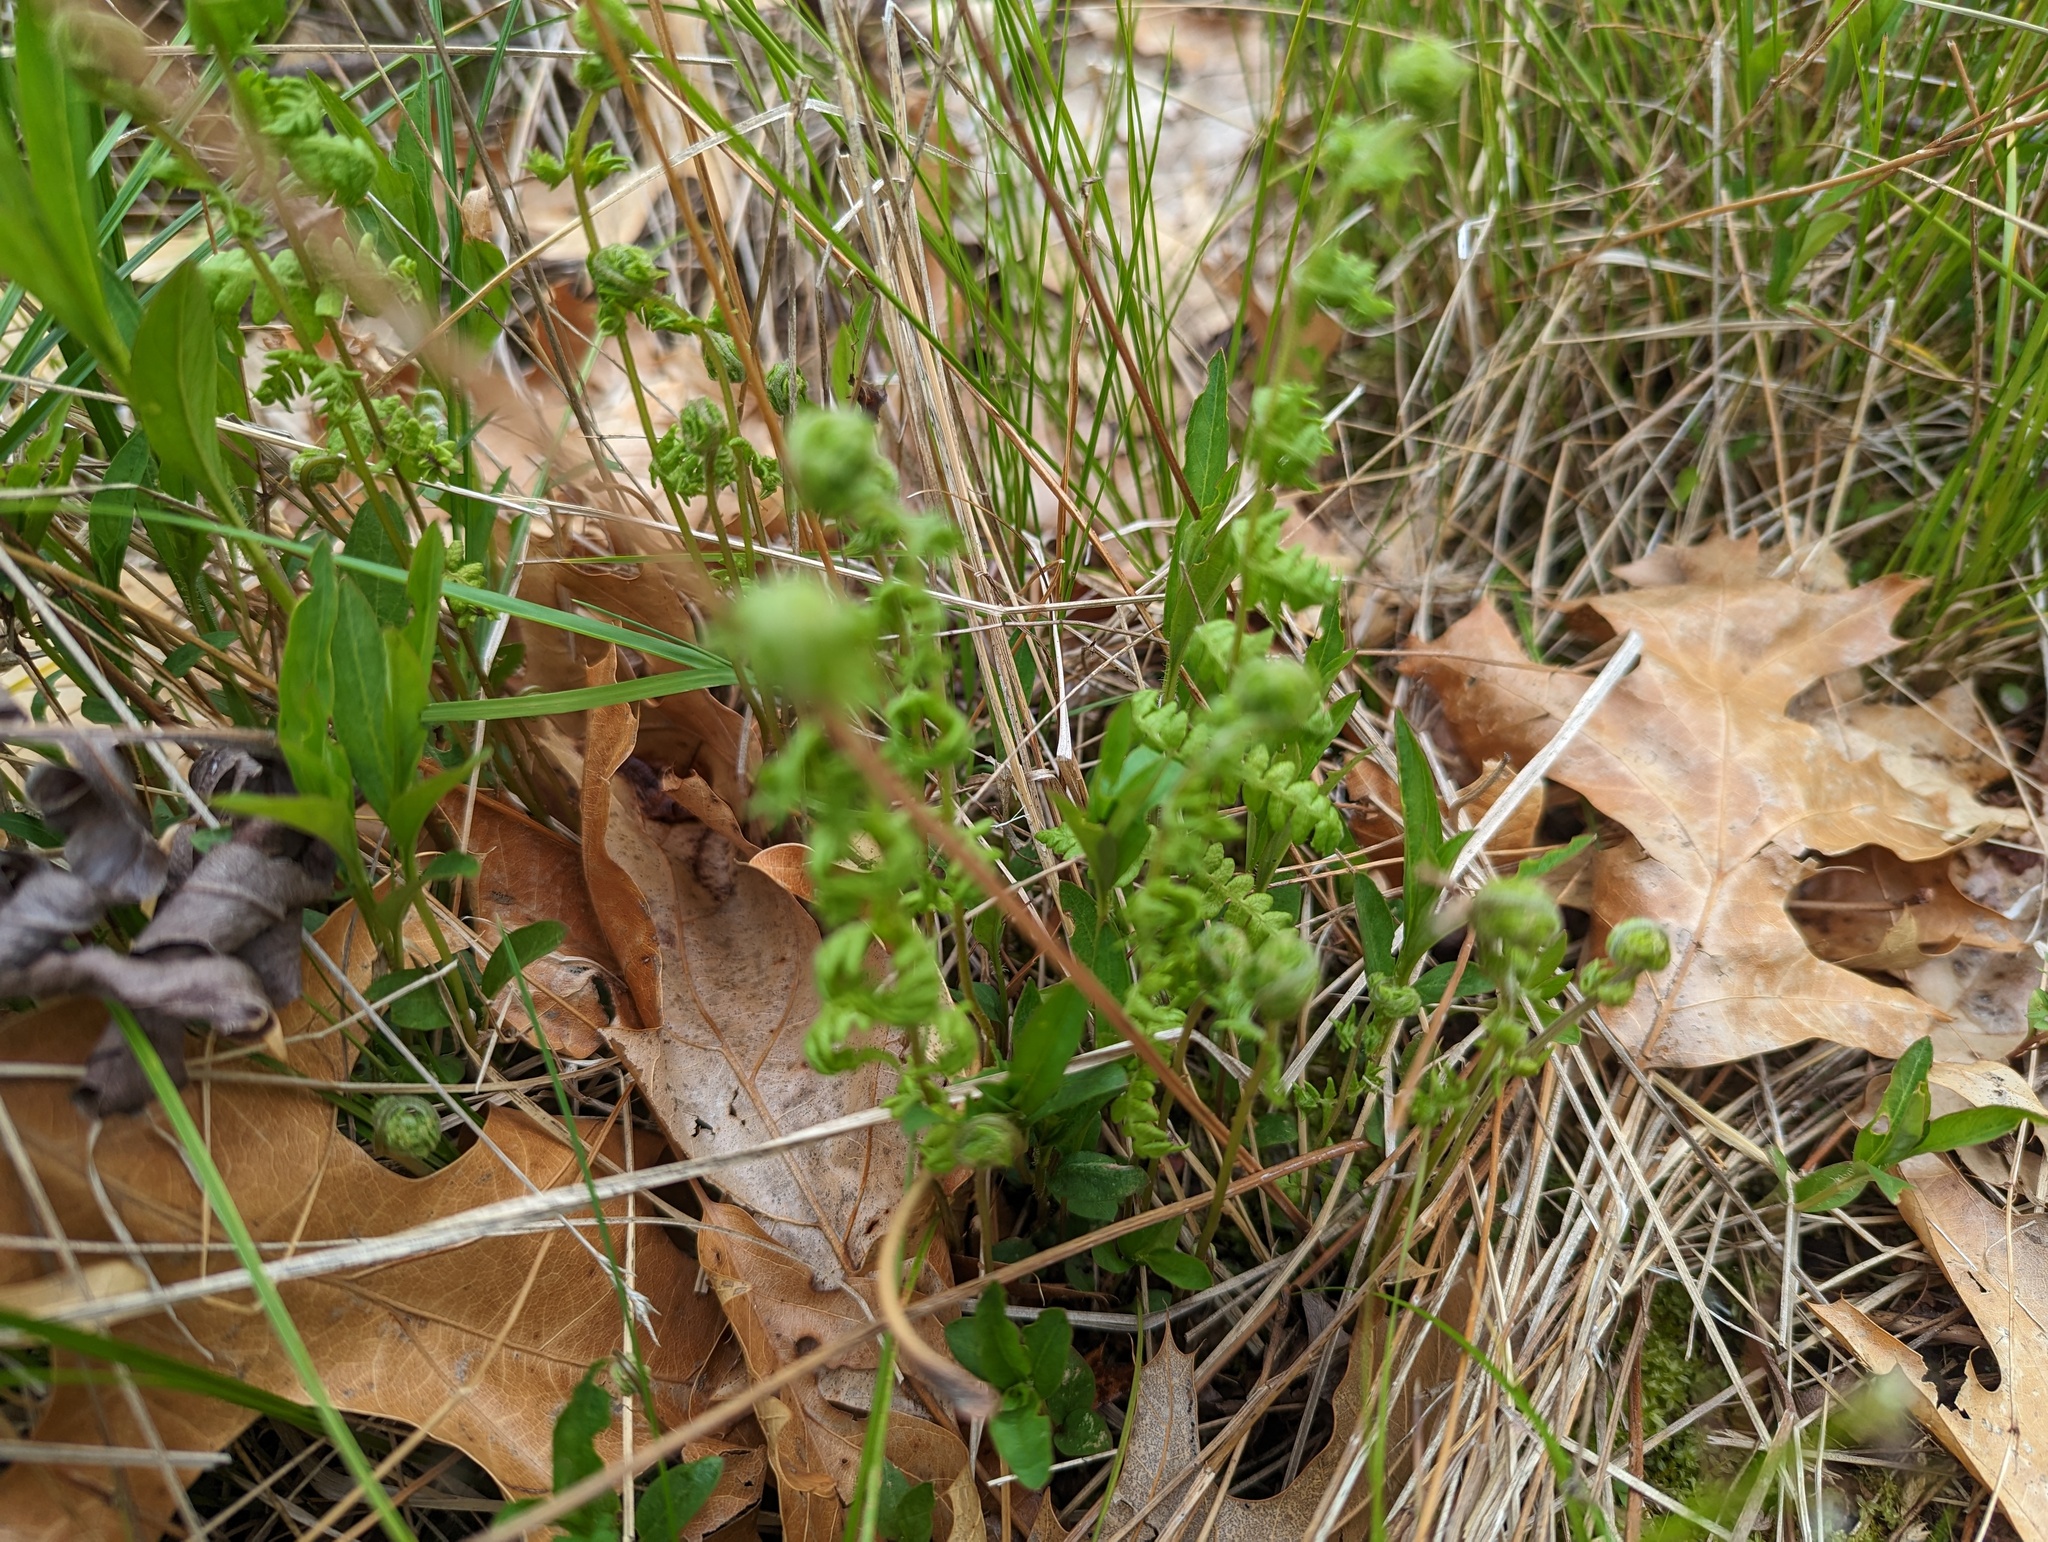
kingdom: Plantae
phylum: Tracheophyta
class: Polypodiopsida
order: Polypodiales
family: Thelypteridaceae
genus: Thelypteris
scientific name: Thelypteris palustris
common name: Marsh fern
